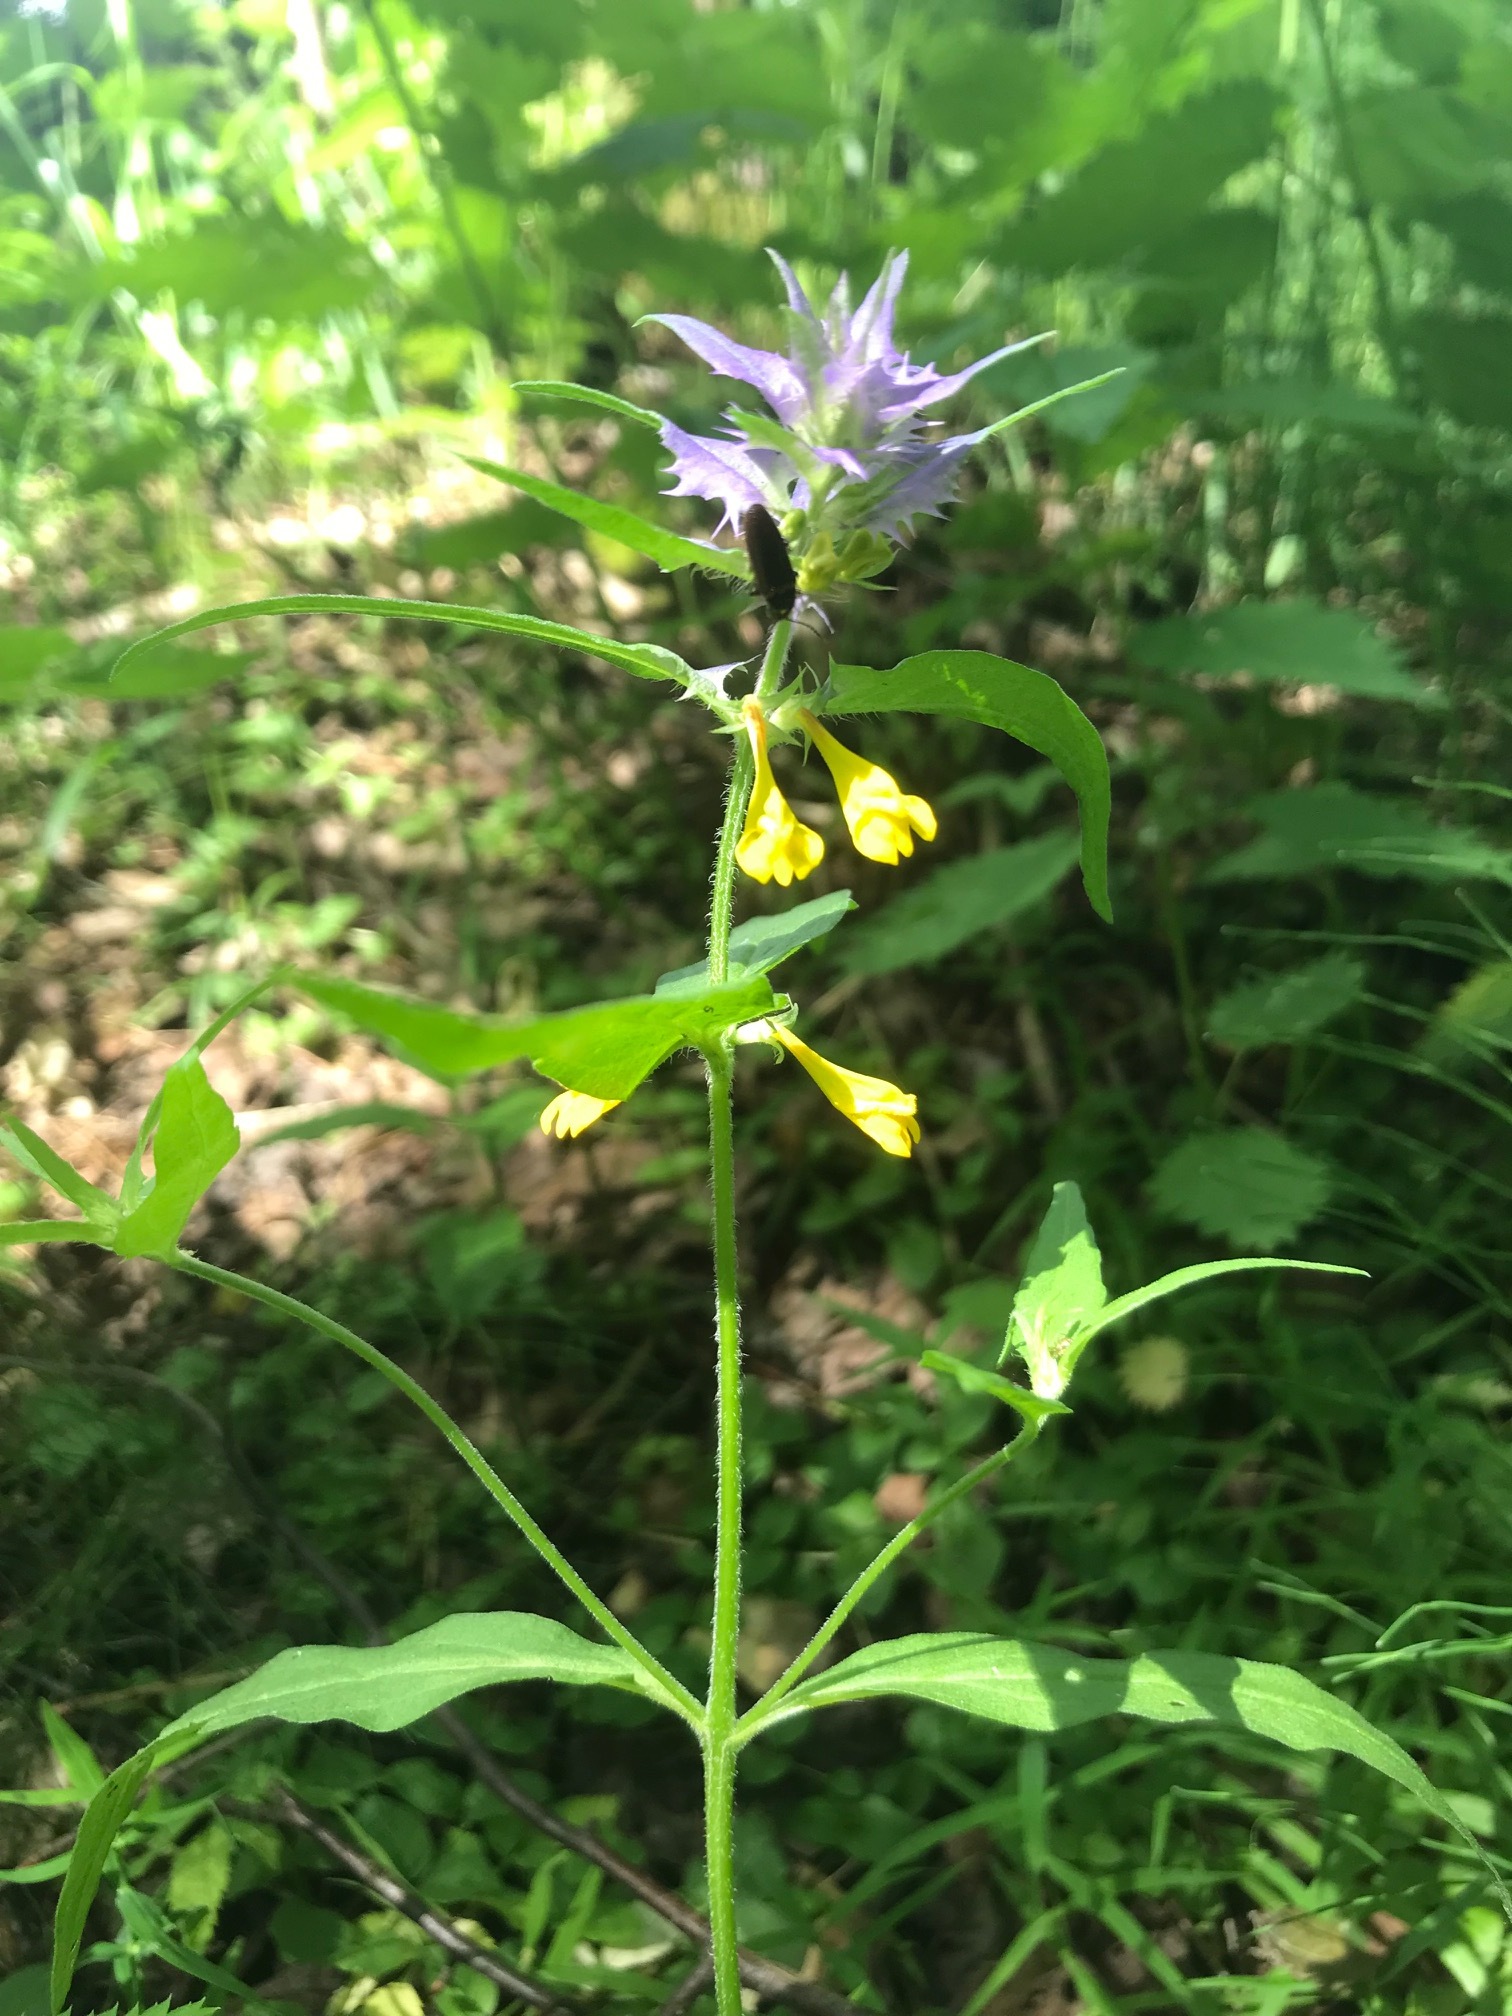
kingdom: Plantae
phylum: Tracheophyta
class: Magnoliopsida
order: Lamiales
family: Orobanchaceae
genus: Melampyrum
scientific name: Melampyrum nemorosum
